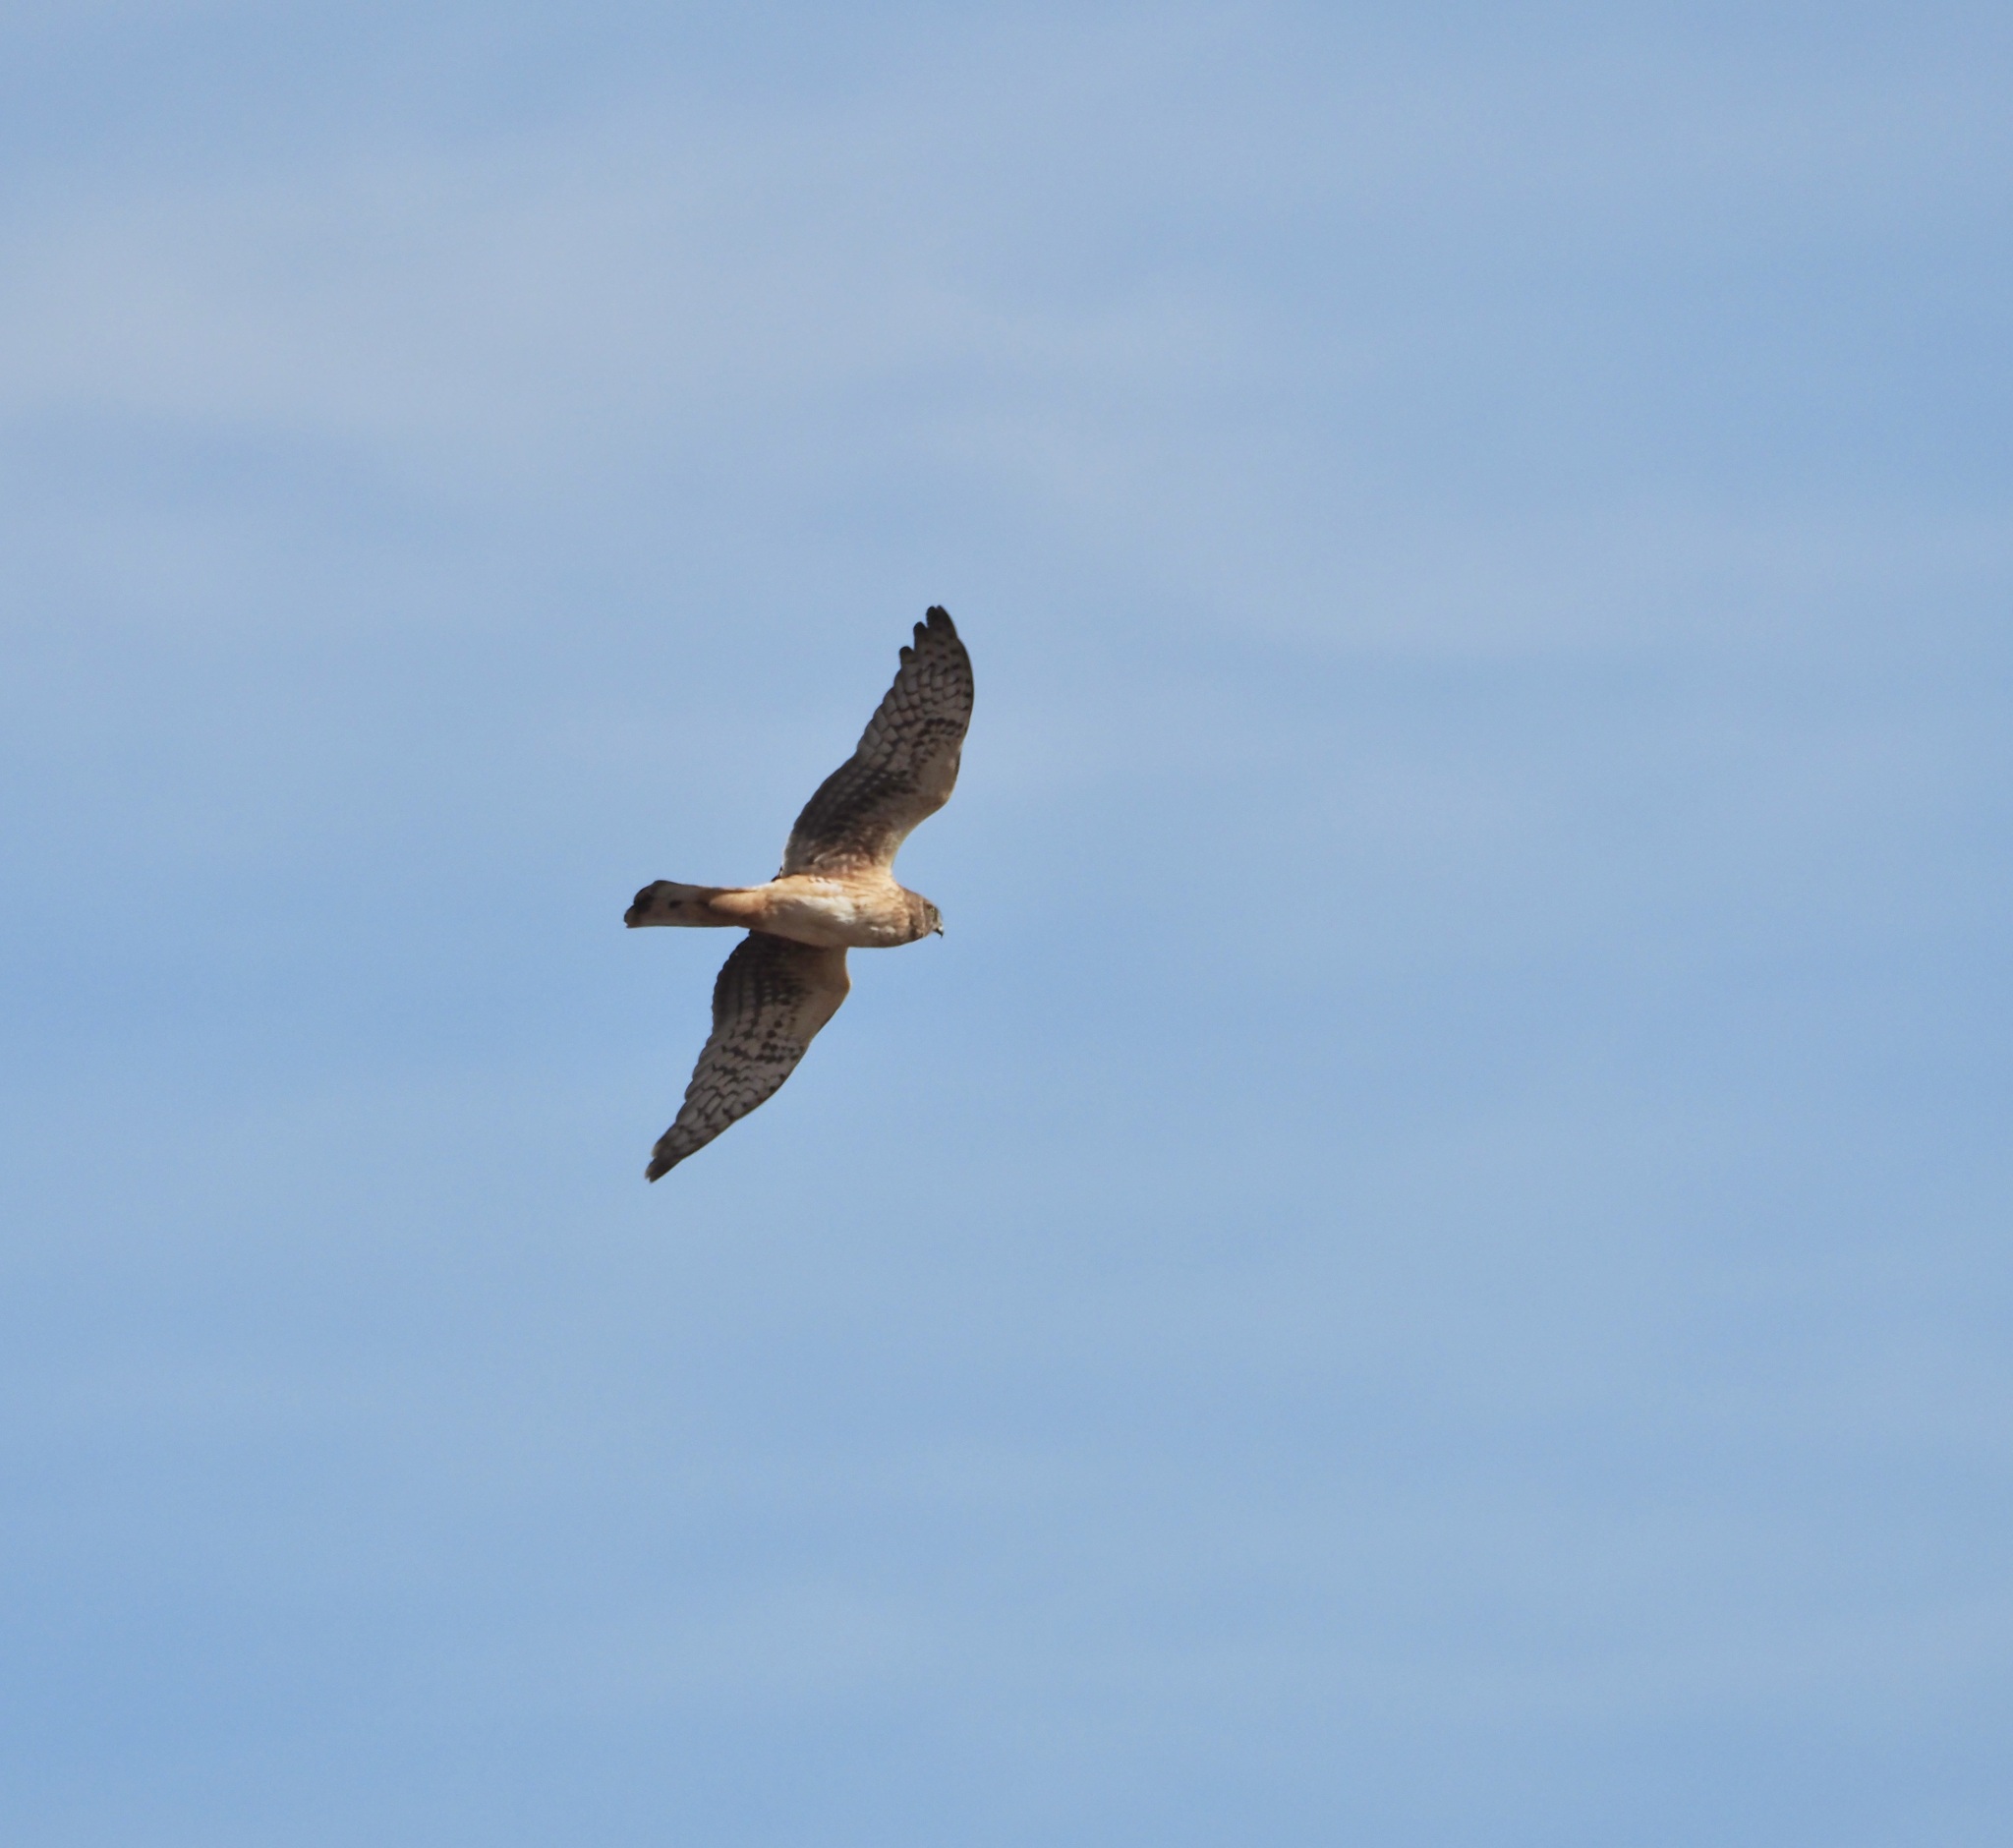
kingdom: Animalia
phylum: Chordata
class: Aves
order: Accipitriformes
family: Accipitridae
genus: Circus
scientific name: Circus cyaneus
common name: Hen harrier
